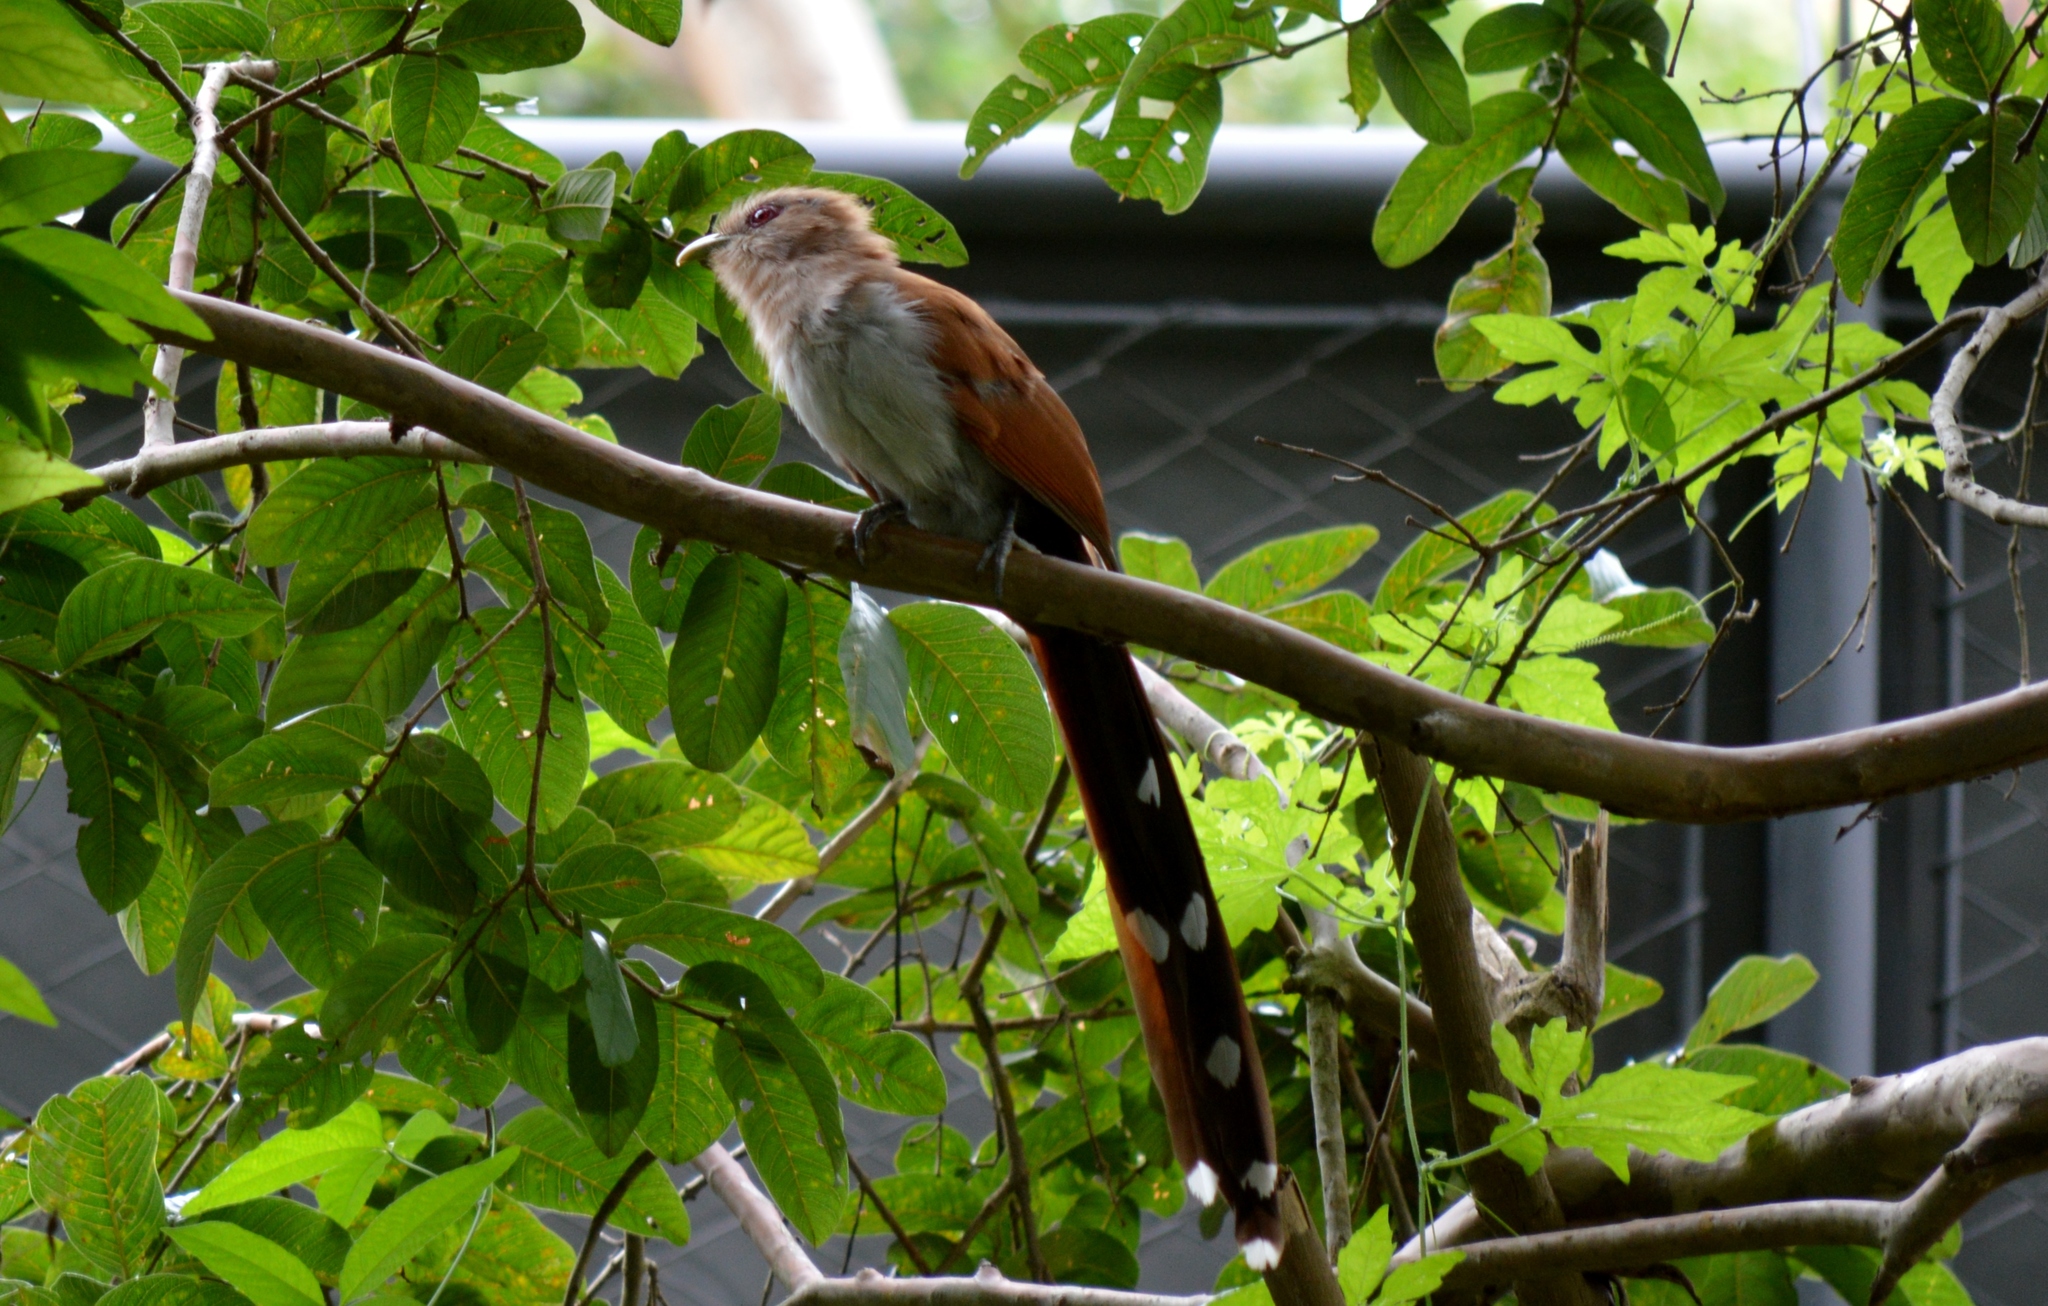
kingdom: Animalia
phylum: Chordata
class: Aves
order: Cuculiformes
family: Cuculidae
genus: Piaya
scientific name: Piaya cayana
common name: Squirrel cuckoo
